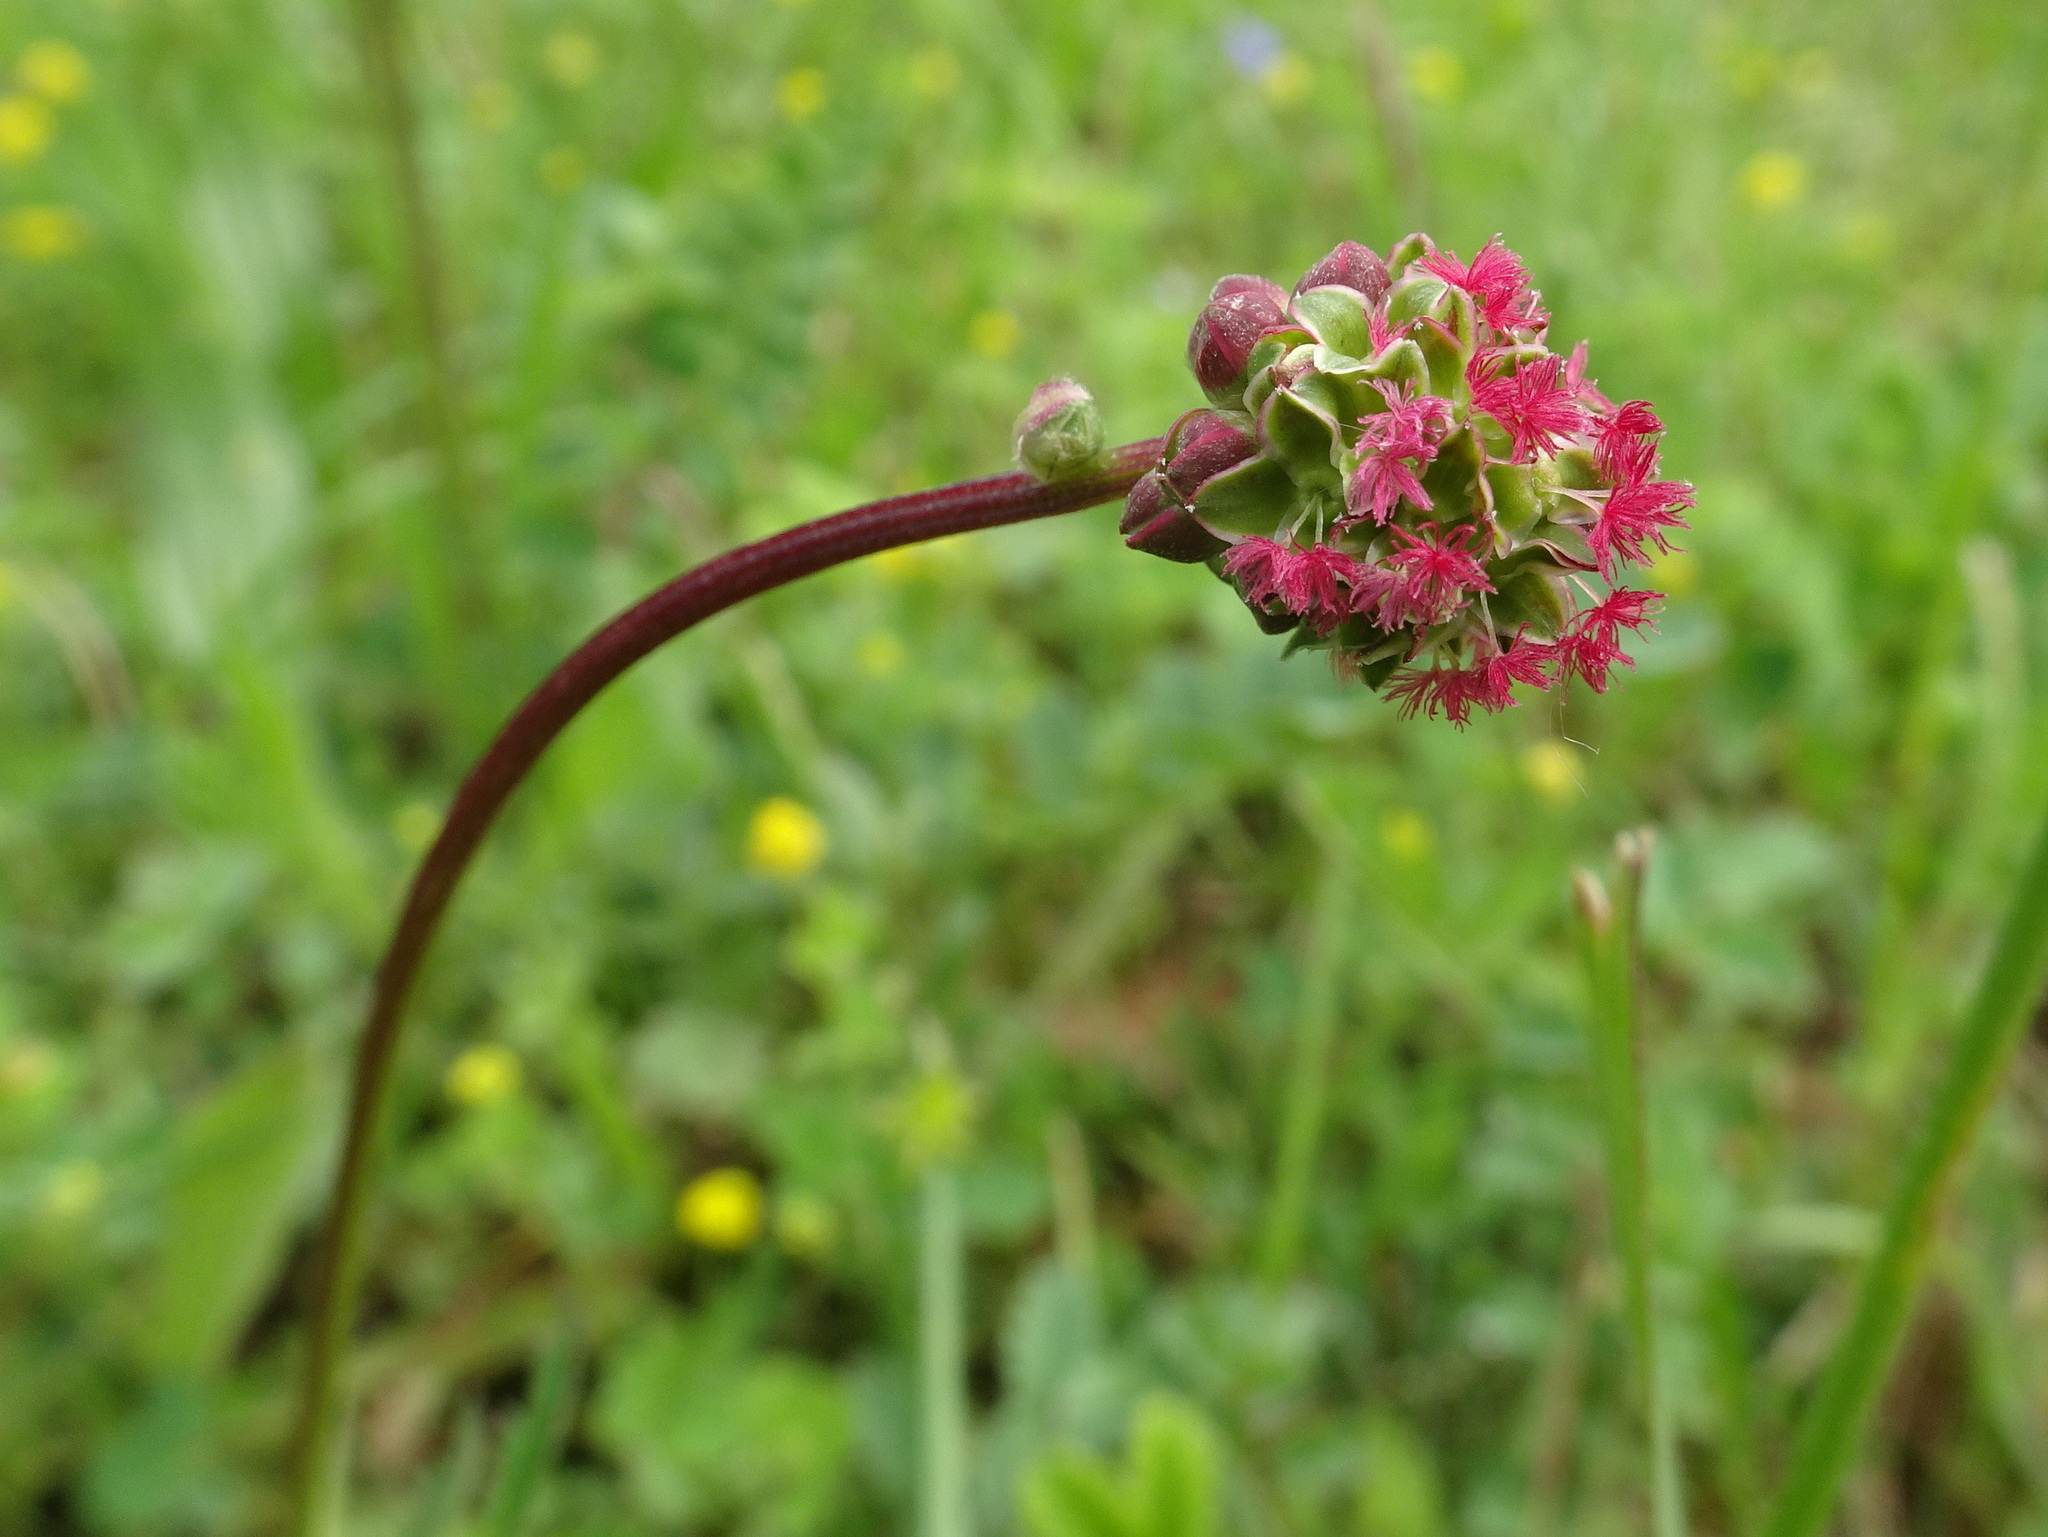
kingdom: Plantae
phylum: Tracheophyta
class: Magnoliopsida
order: Rosales
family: Rosaceae
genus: Poterium
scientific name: Poterium sanguisorba
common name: Salad burnet
